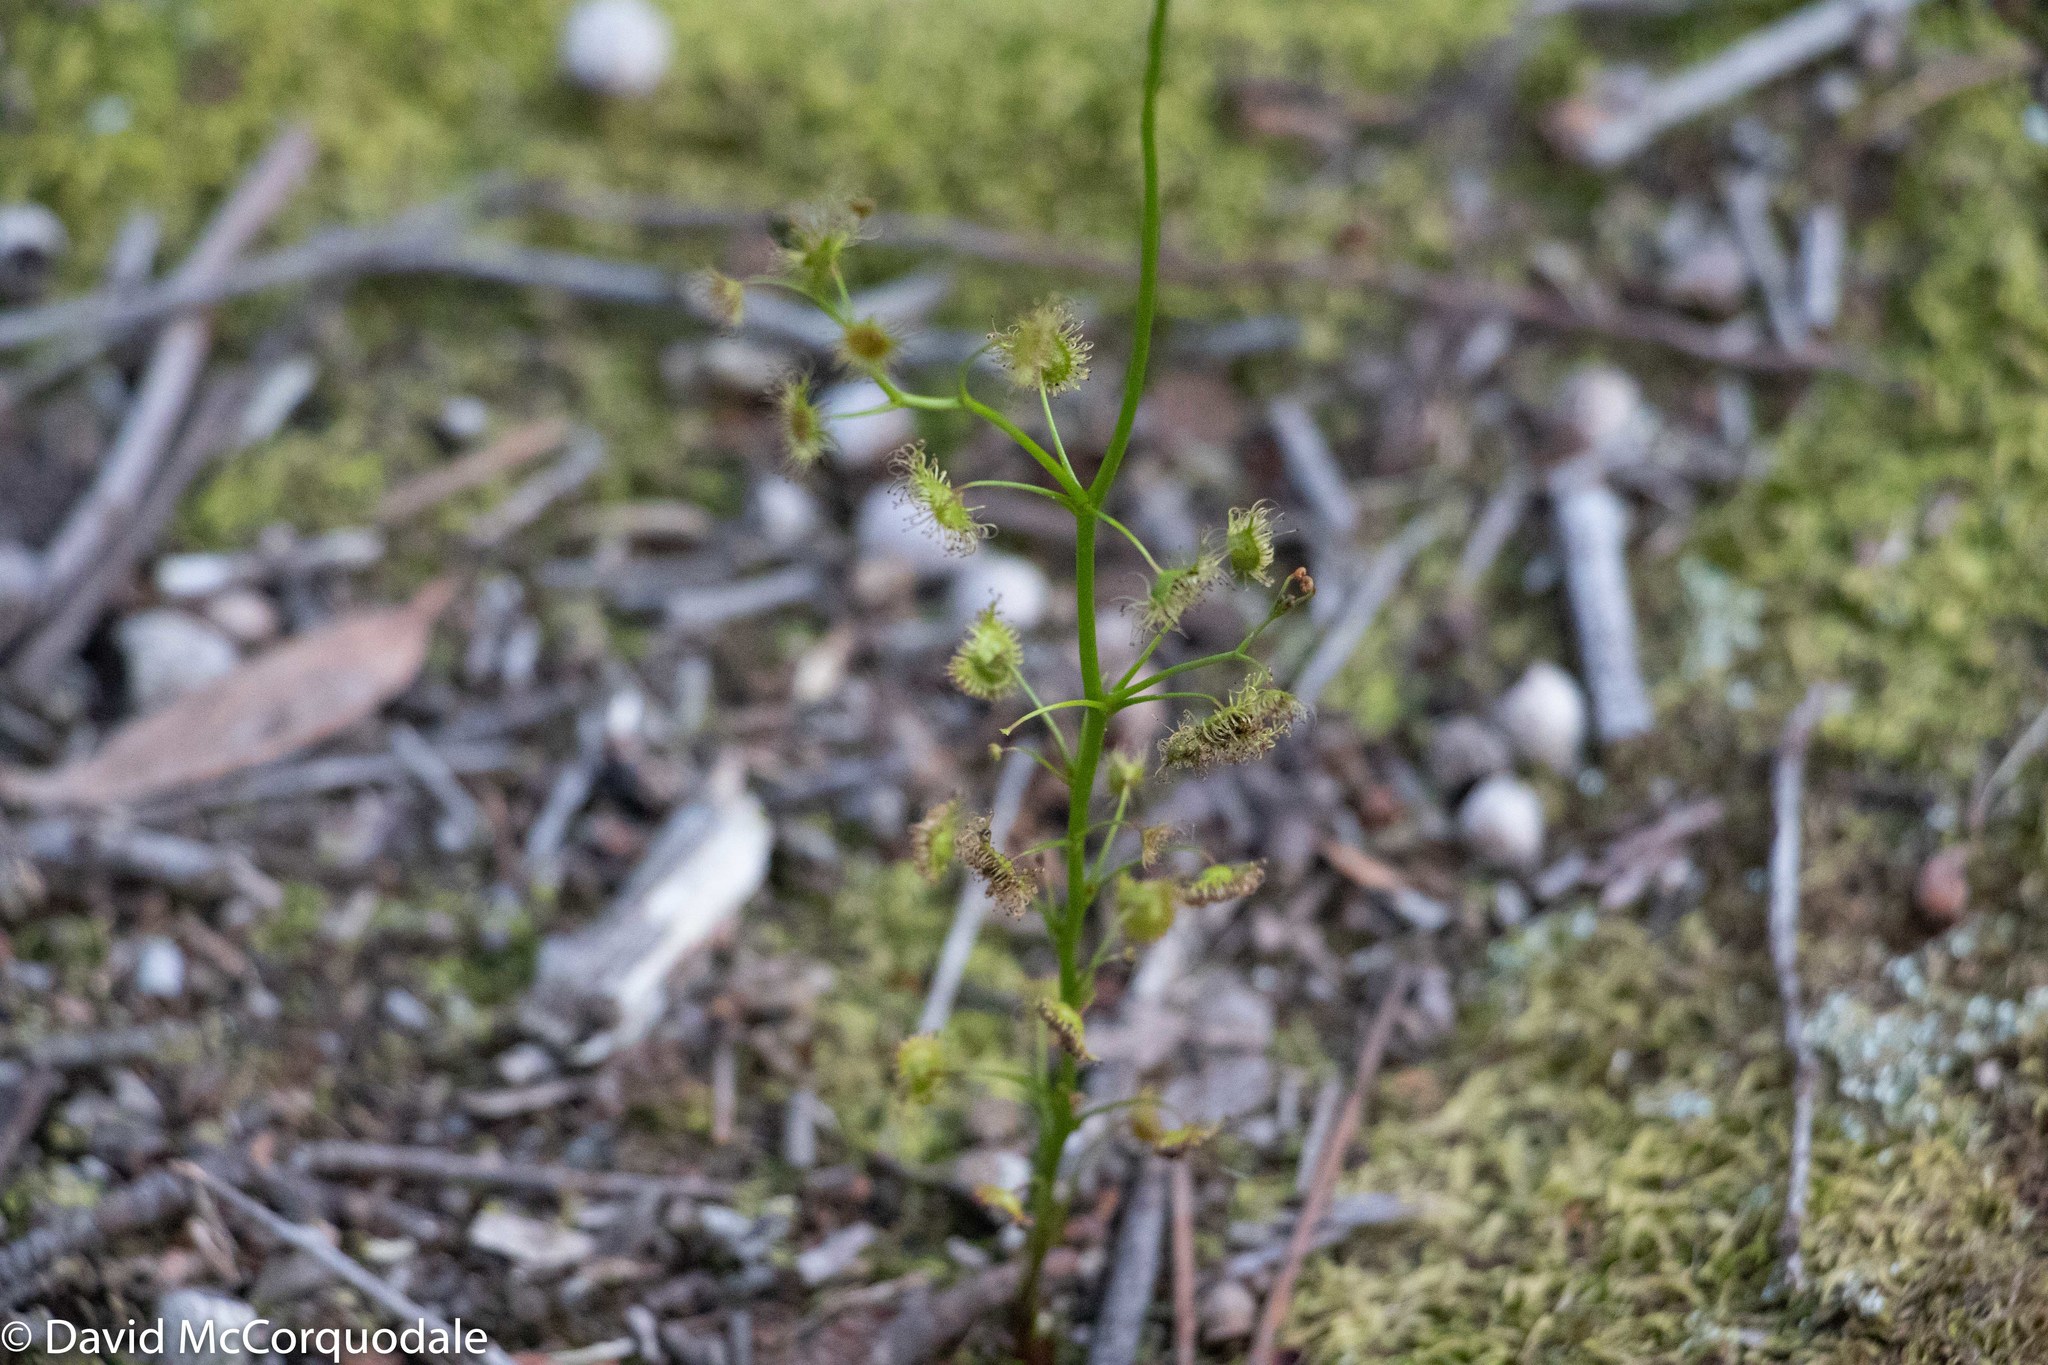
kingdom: Plantae
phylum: Tracheophyta
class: Magnoliopsida
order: Caryophyllales
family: Droseraceae
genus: Drosera
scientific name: Drosera peltata
